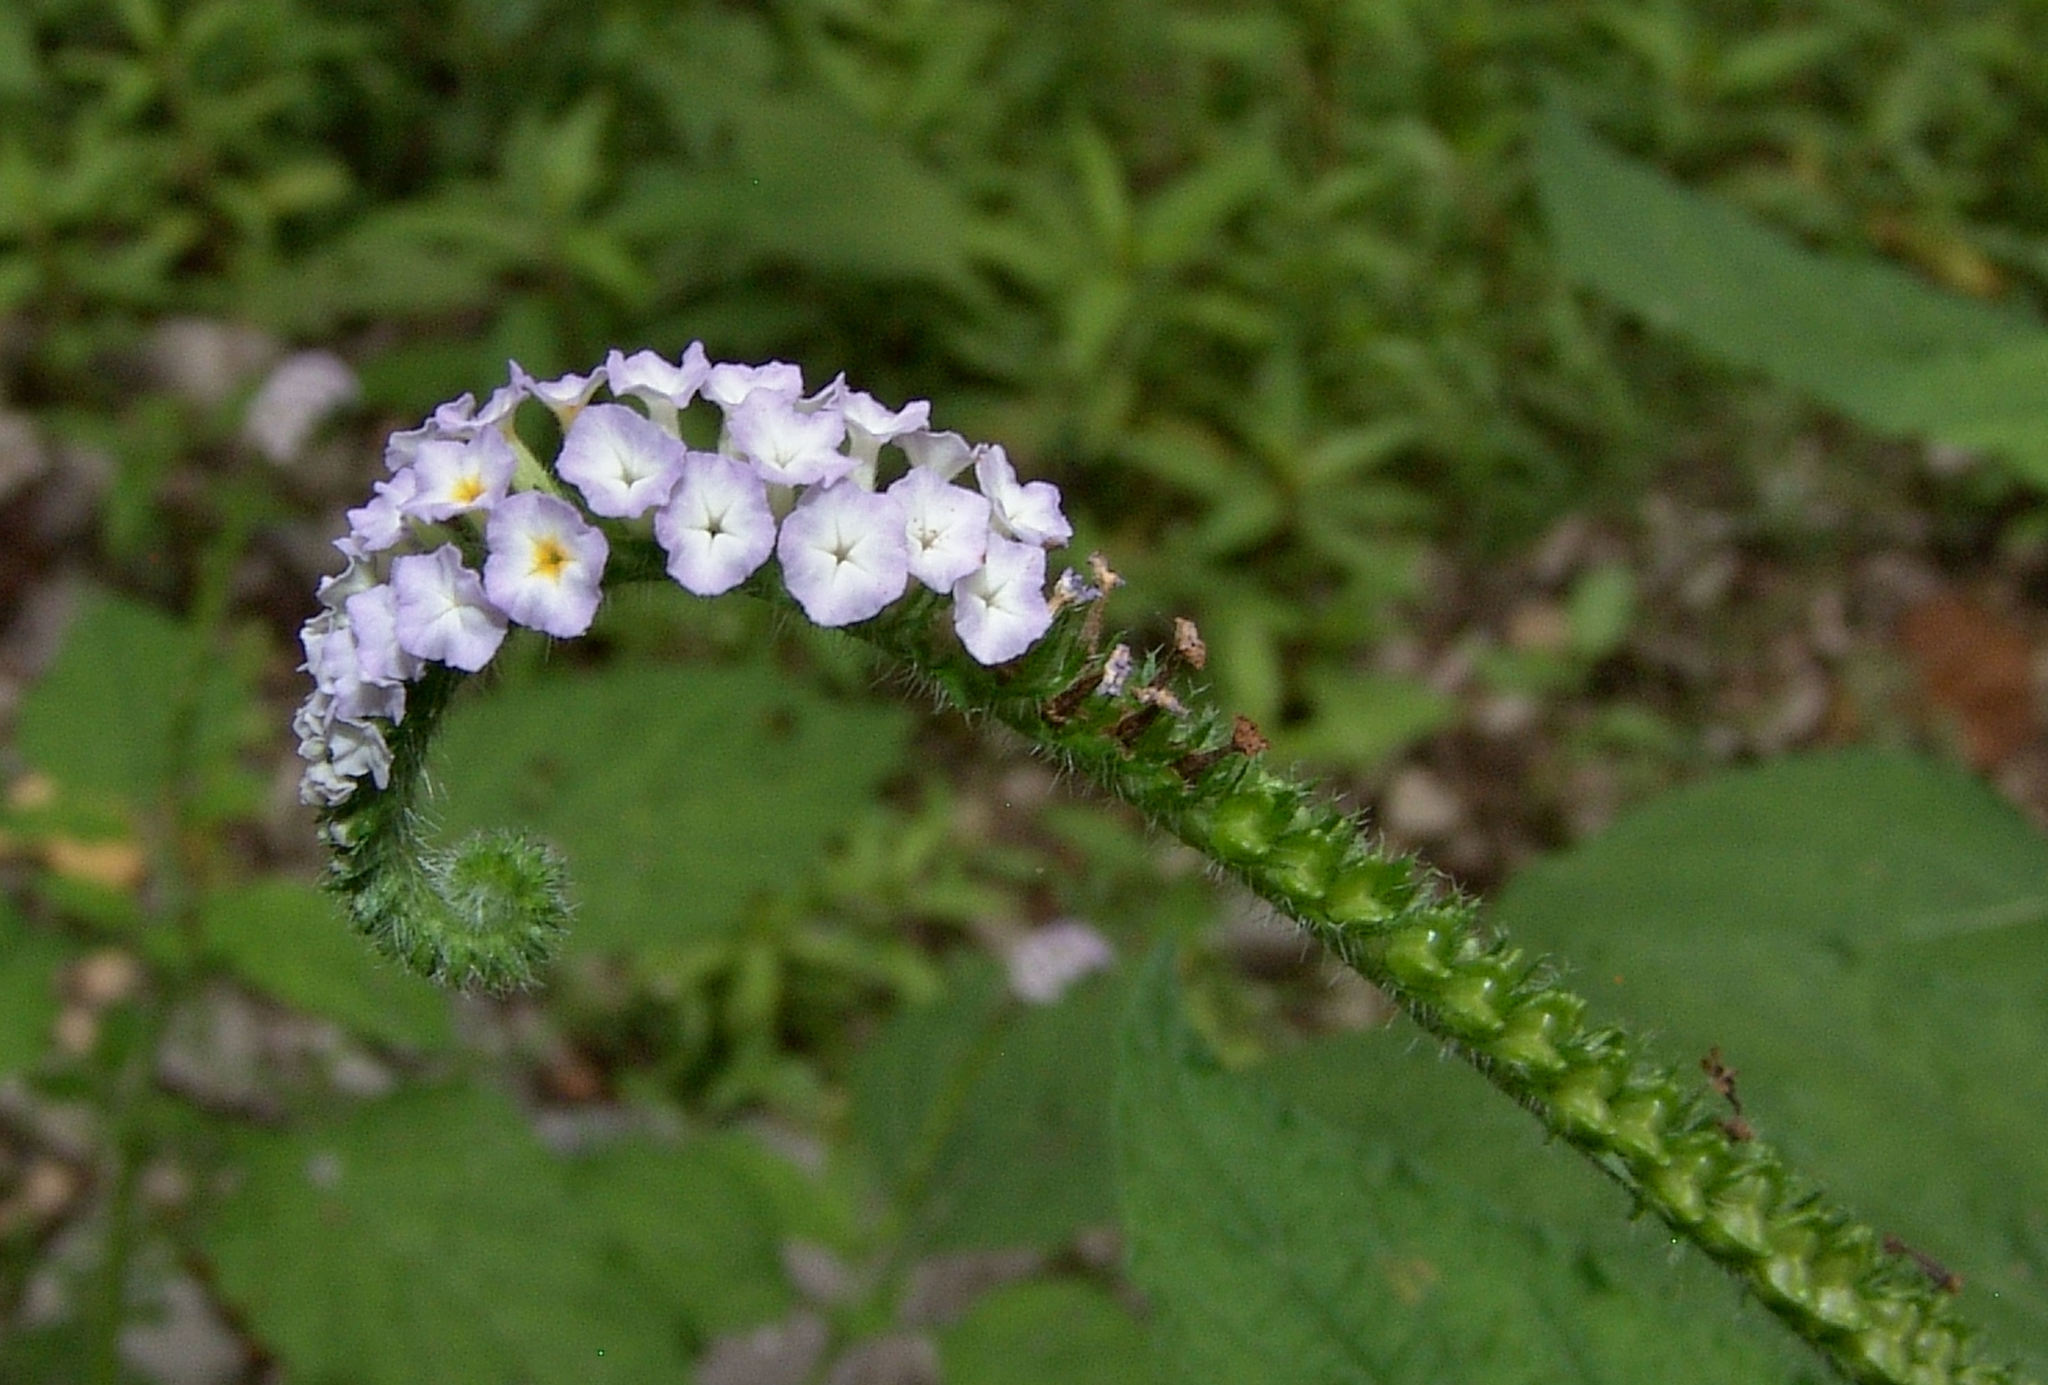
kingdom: Plantae
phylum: Tracheophyta
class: Magnoliopsida
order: Boraginales
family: Heliotropiaceae
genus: Heliotropium
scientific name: Heliotropium indicum
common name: Indian heliotrope
